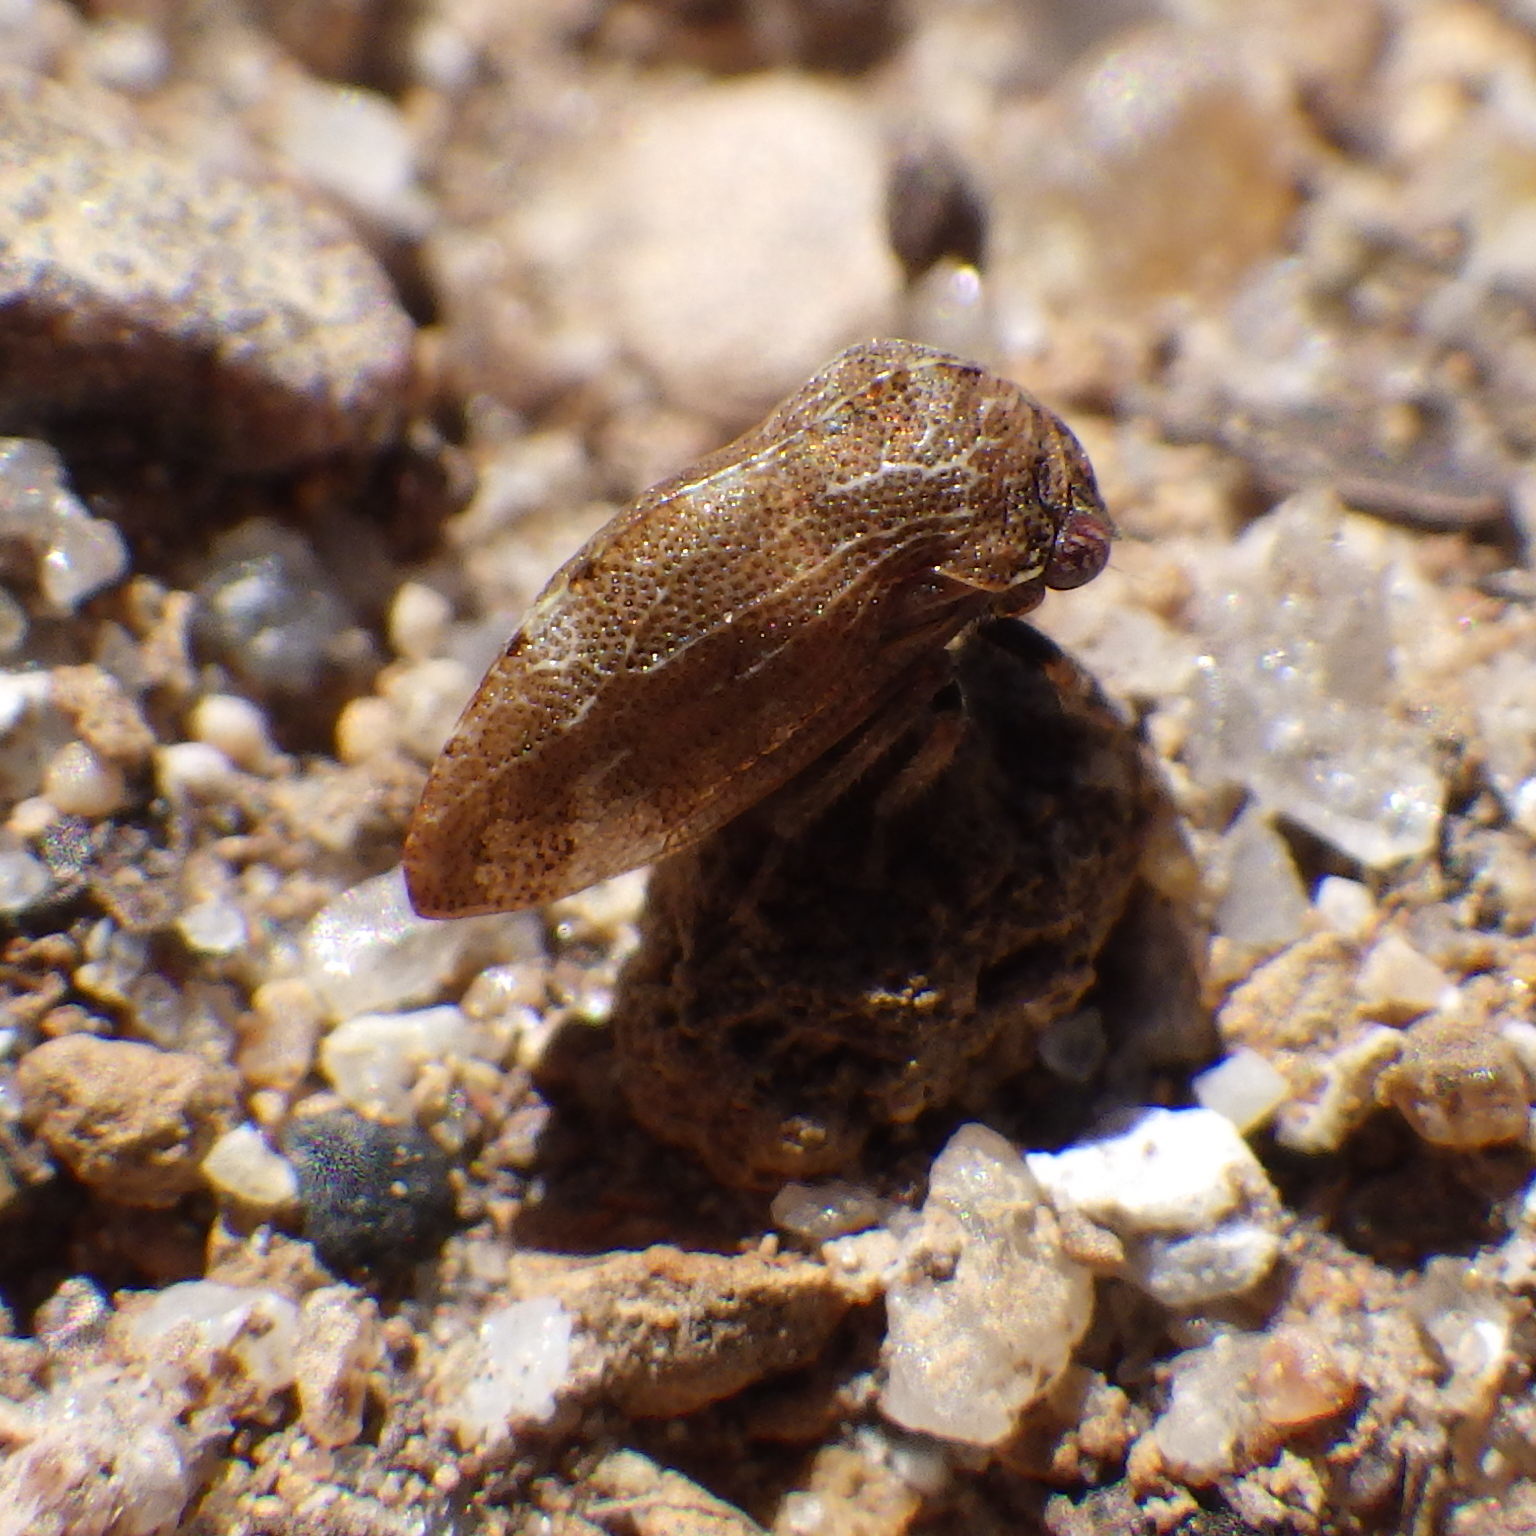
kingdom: Animalia
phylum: Arthropoda
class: Insecta
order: Hemiptera
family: Membracidae
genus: Publilia
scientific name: Publilia concava
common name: Aster treehopper
